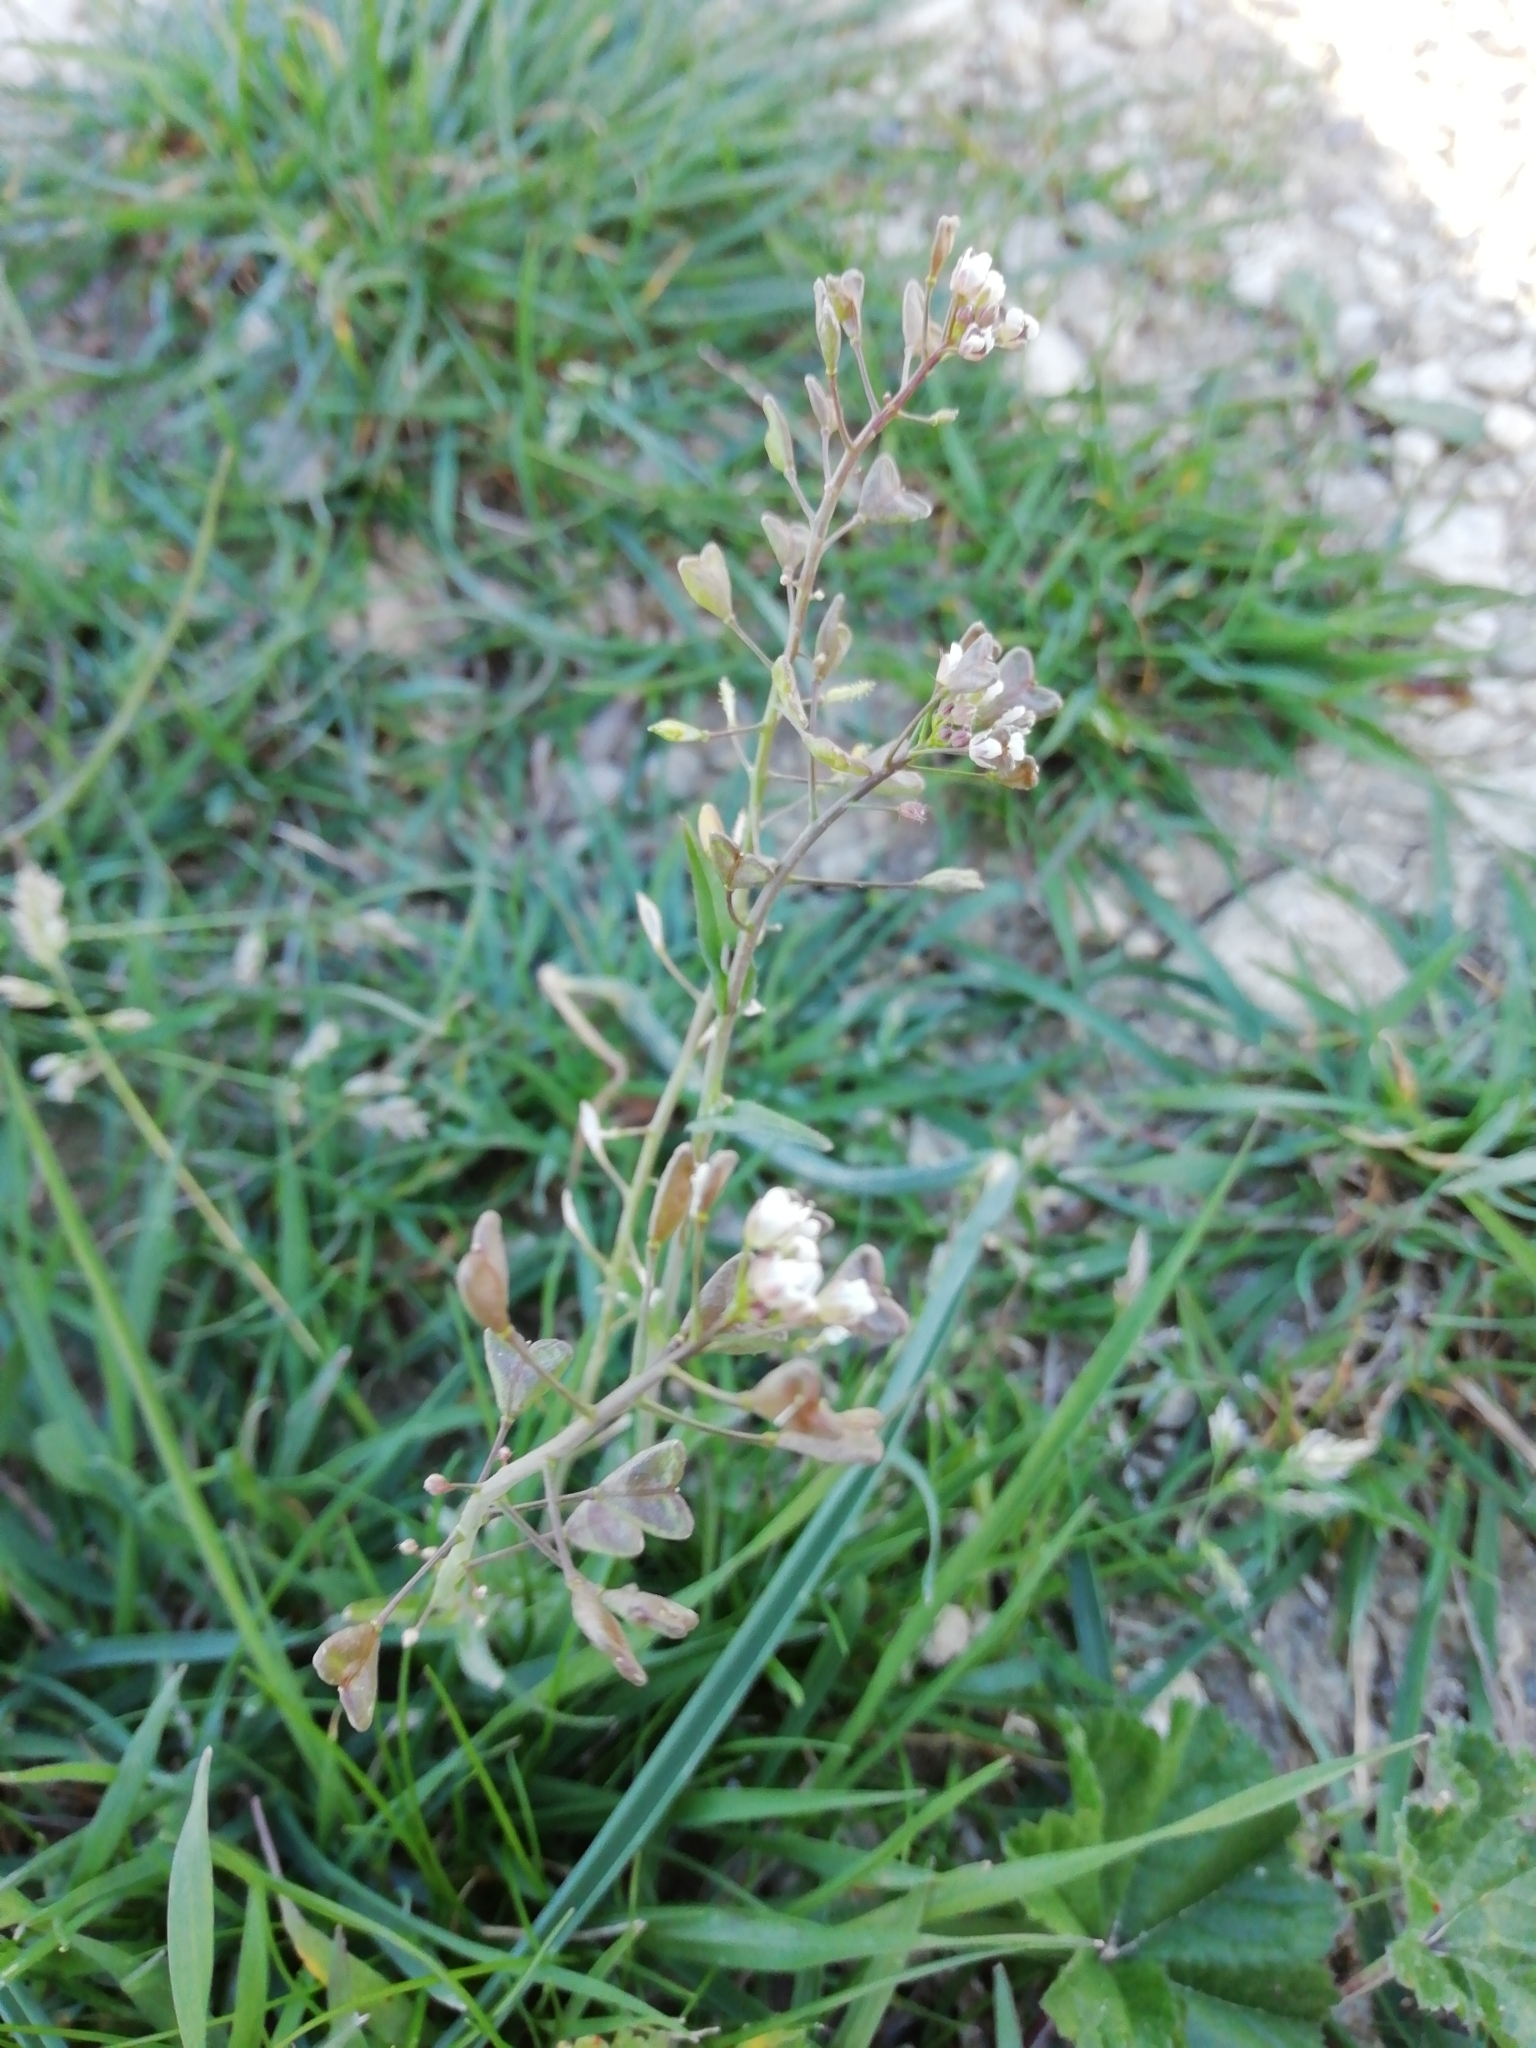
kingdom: Plantae
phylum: Tracheophyta
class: Magnoliopsida
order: Brassicales
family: Brassicaceae
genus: Capsella
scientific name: Capsella bursa-pastoris
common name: Shepherd's purse
